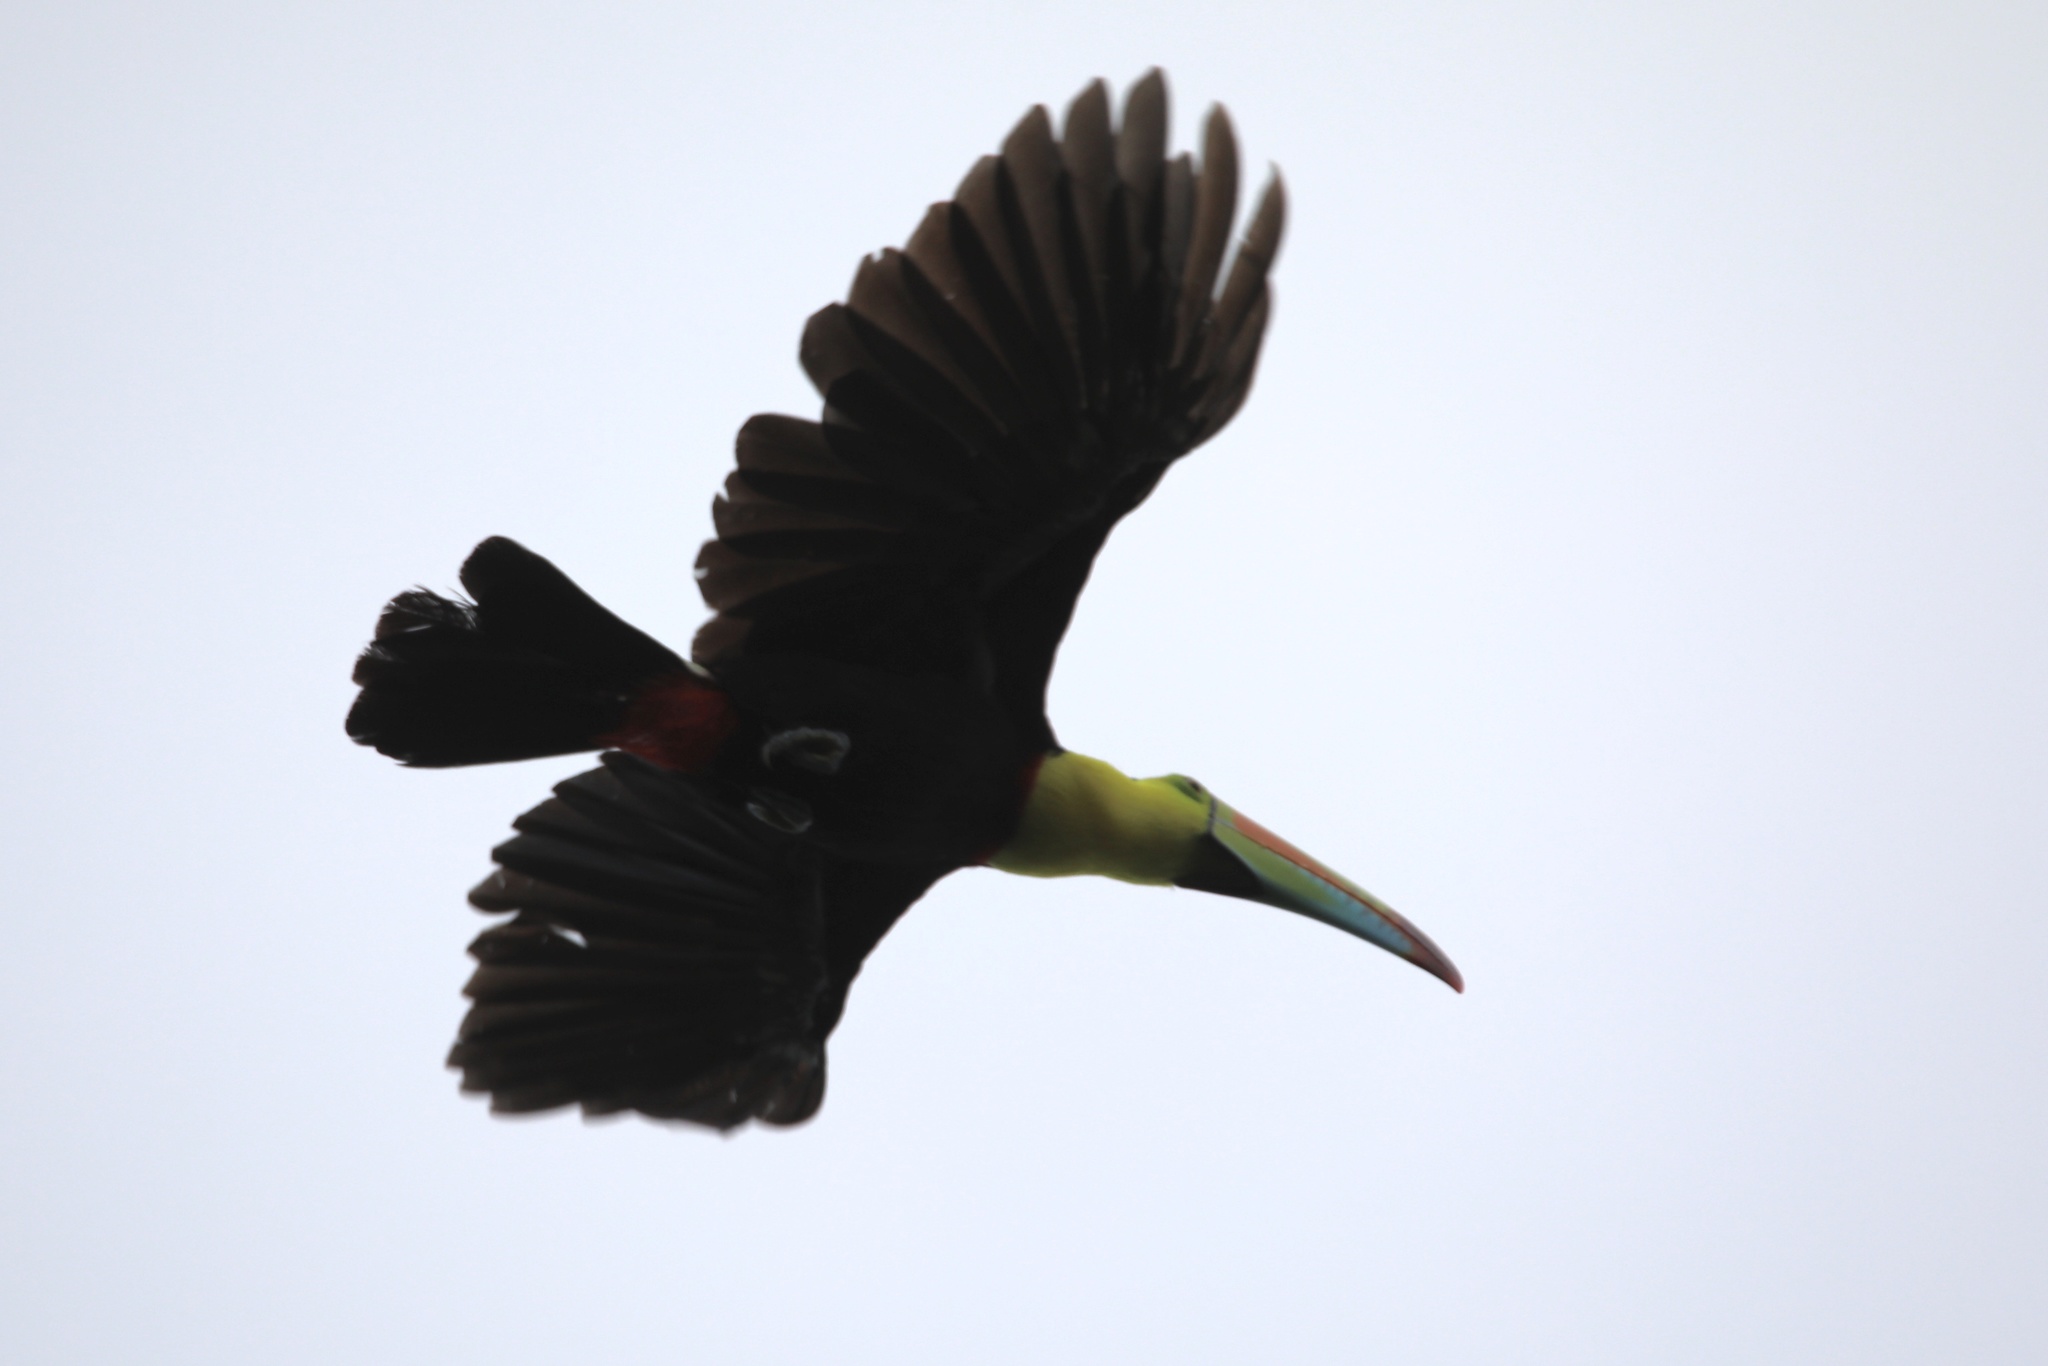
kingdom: Animalia
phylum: Chordata
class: Aves
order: Piciformes
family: Ramphastidae
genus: Ramphastos
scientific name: Ramphastos sulfuratus
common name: Keel-billed toucan
